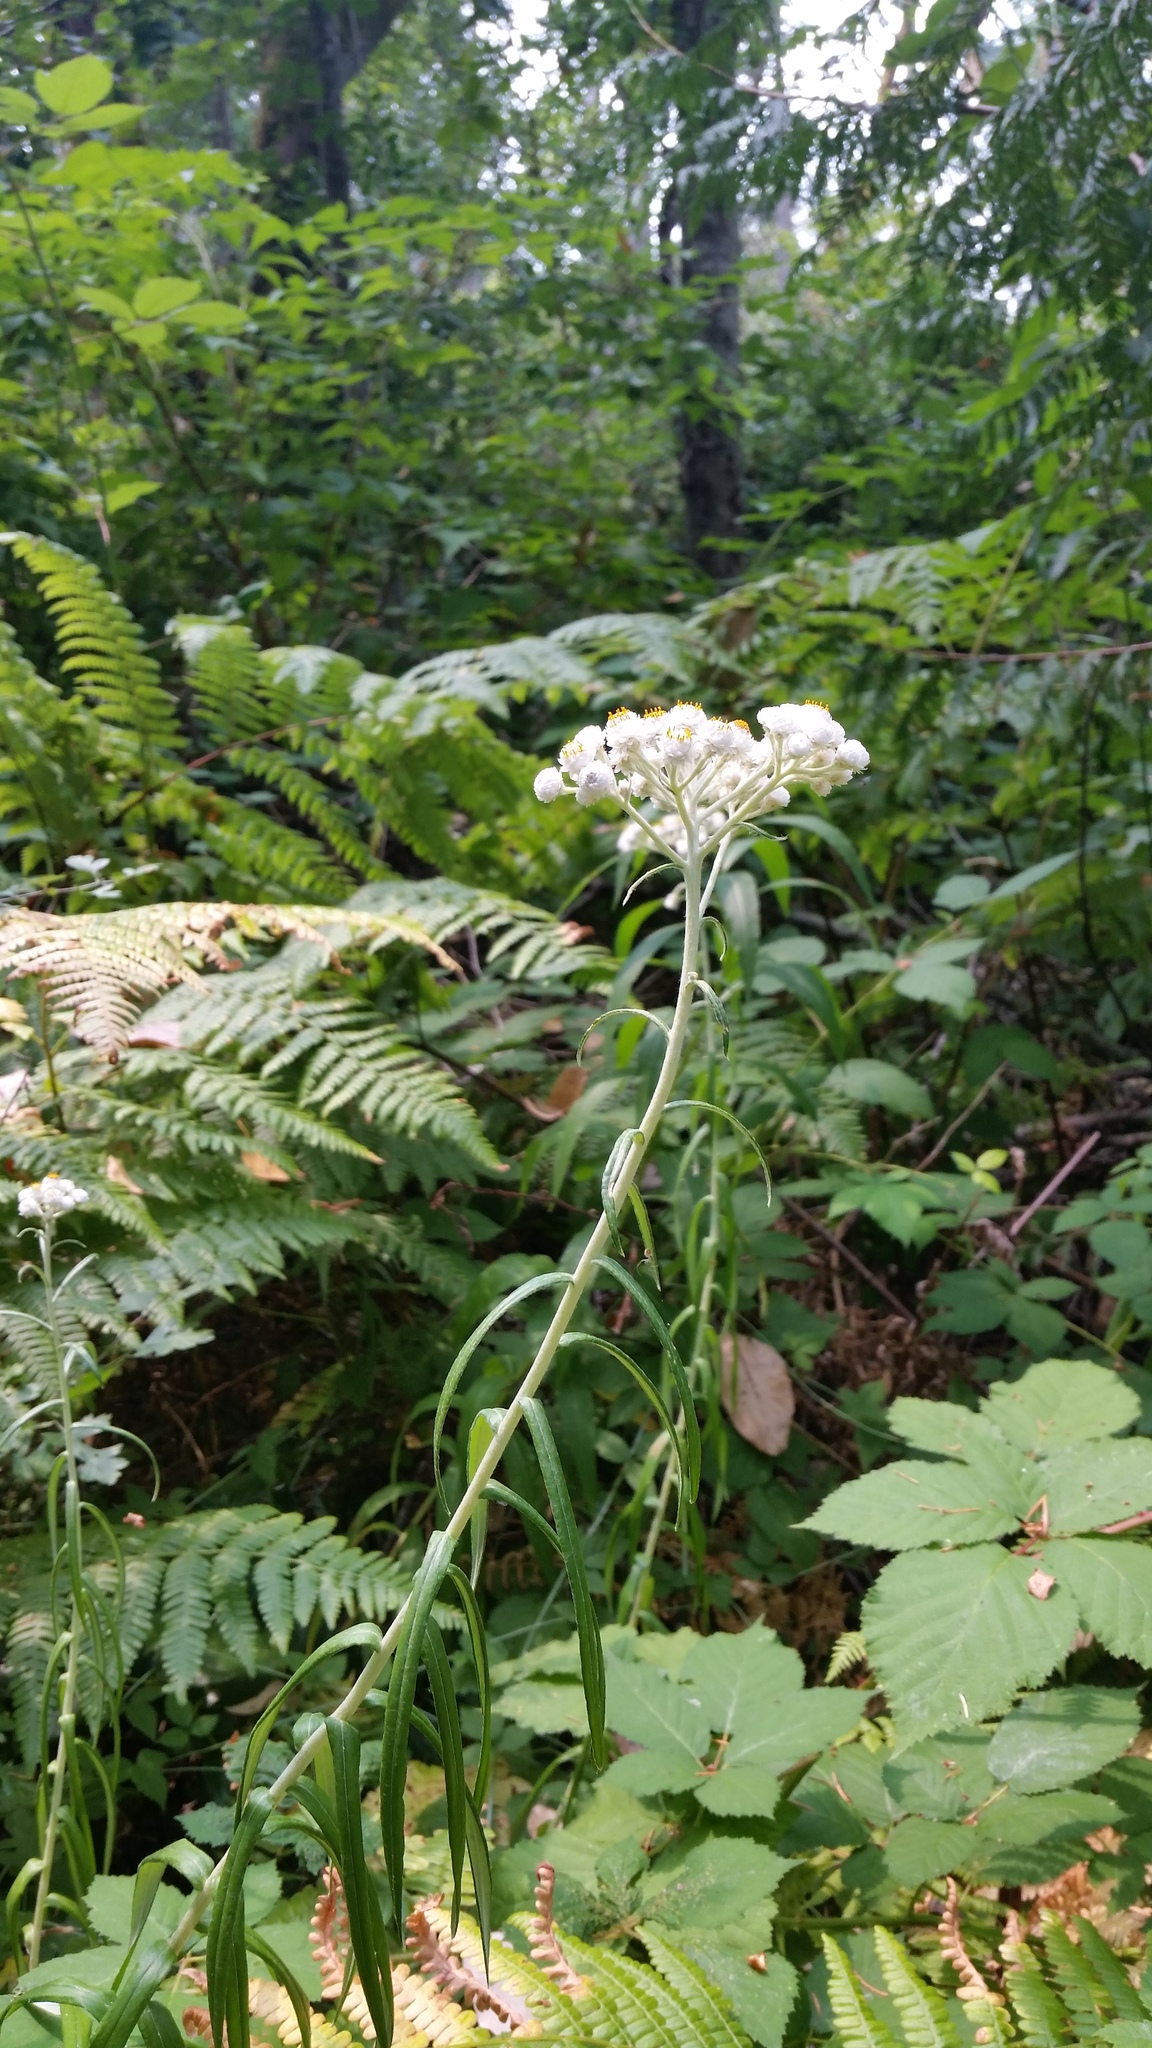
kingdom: Plantae
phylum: Tracheophyta
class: Magnoliopsida
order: Asterales
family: Asteraceae
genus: Anaphalis
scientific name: Anaphalis margaritacea
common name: Pearly everlasting
